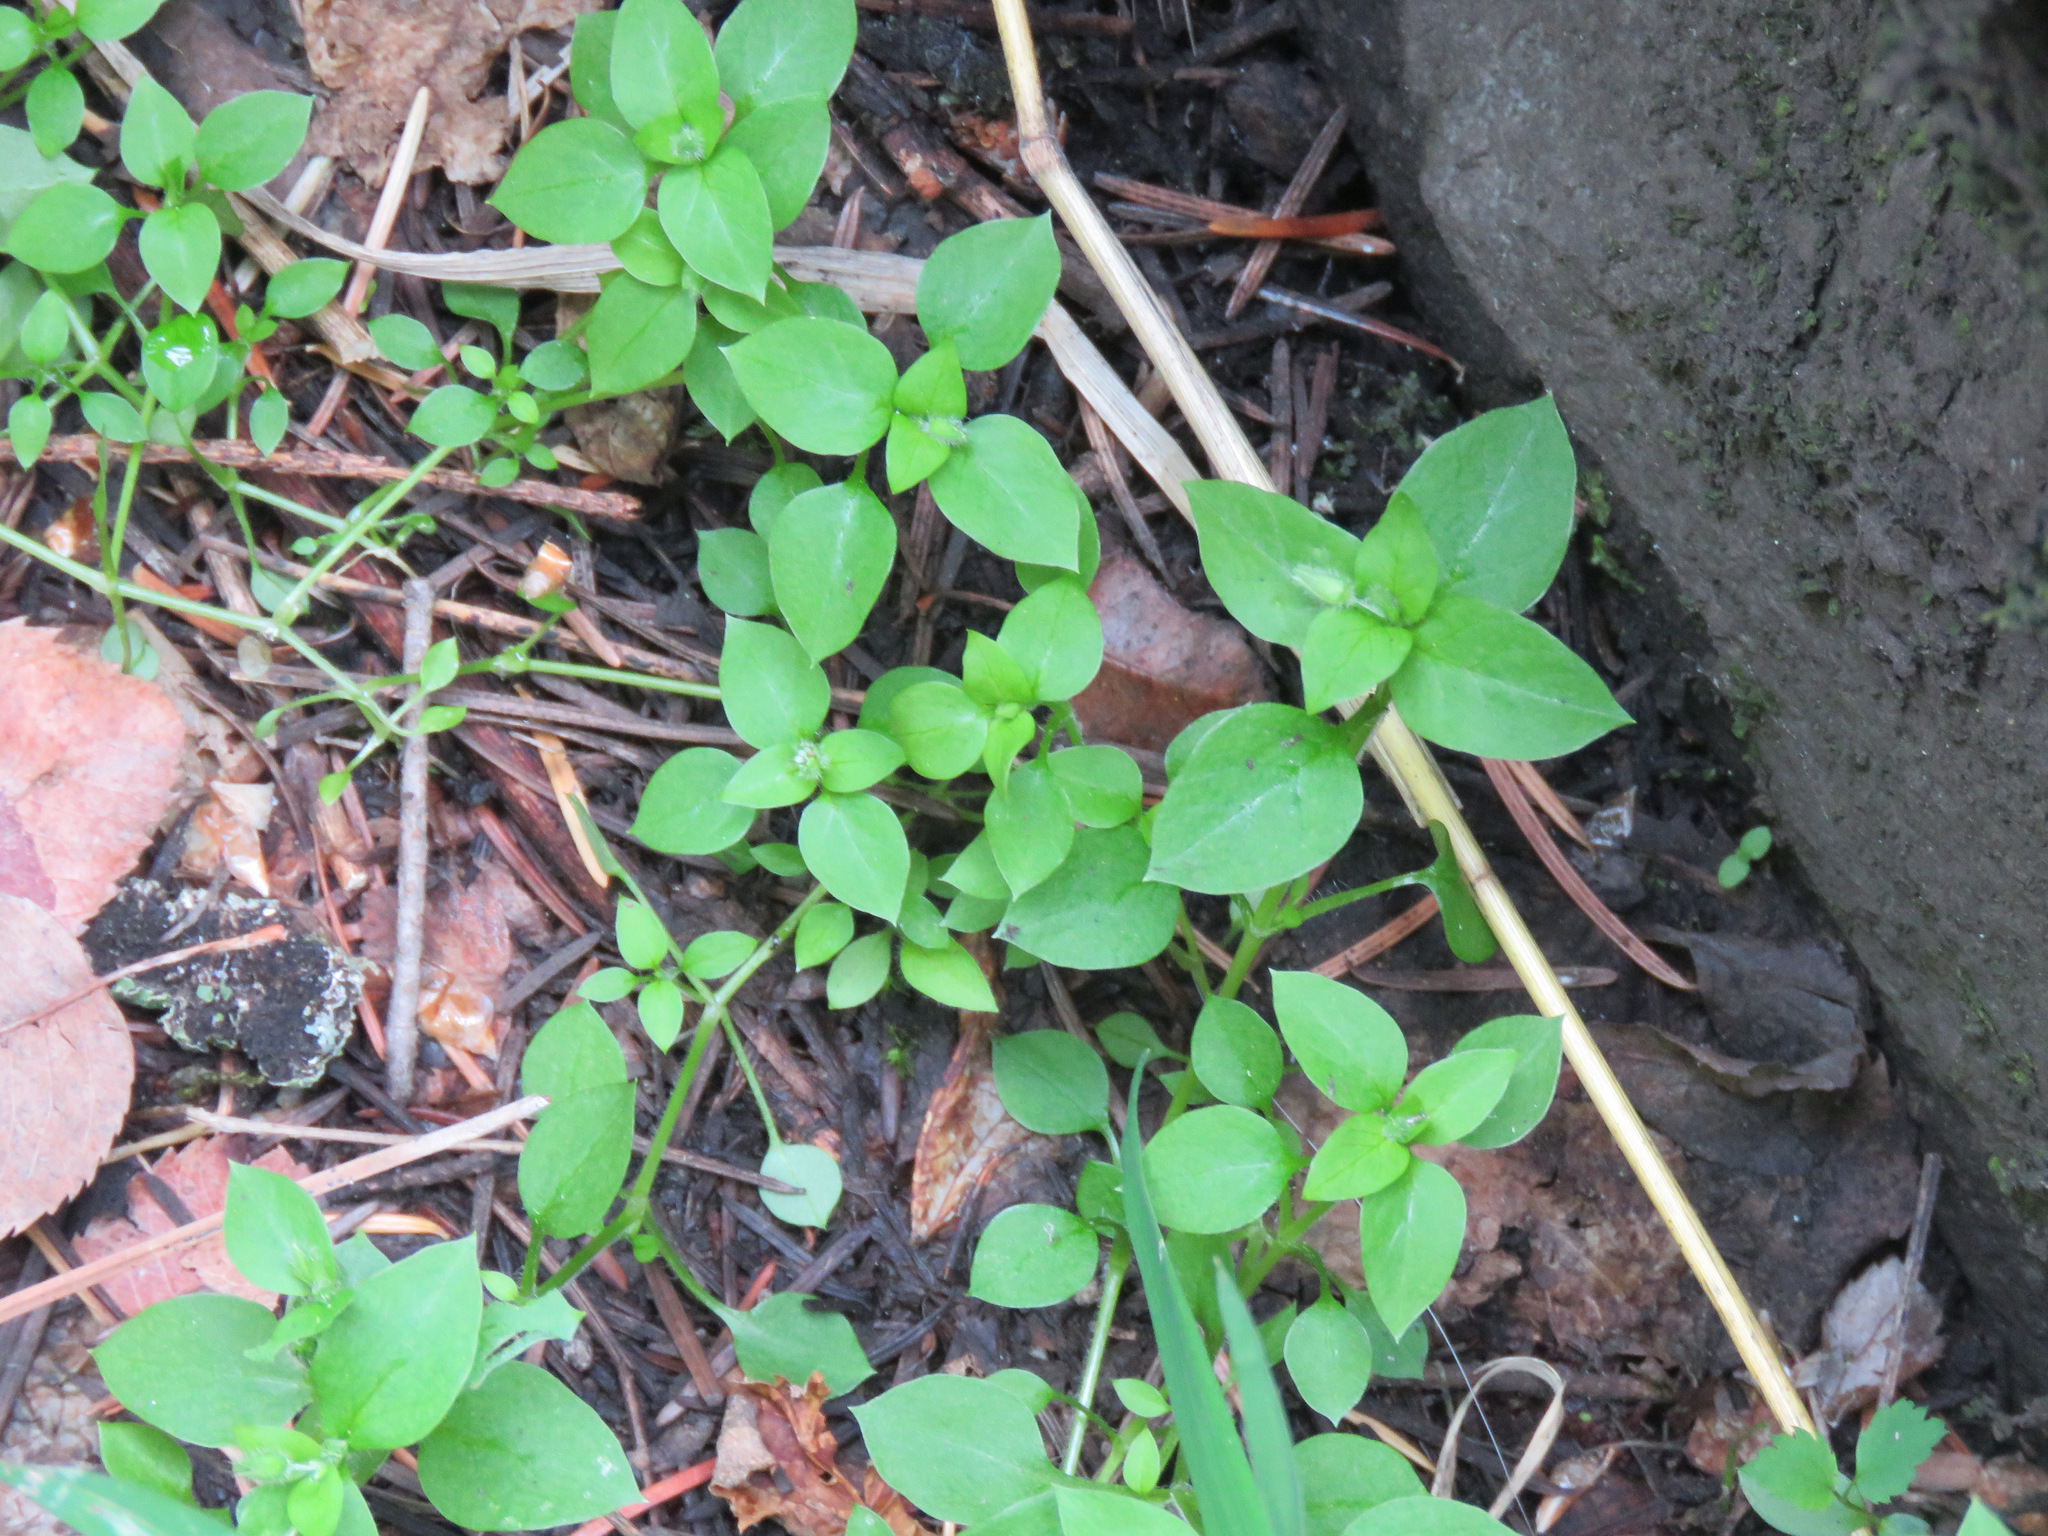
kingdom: Plantae
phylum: Tracheophyta
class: Magnoliopsida
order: Caryophyllales
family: Caryophyllaceae
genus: Stellaria
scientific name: Stellaria media
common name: Common chickweed
